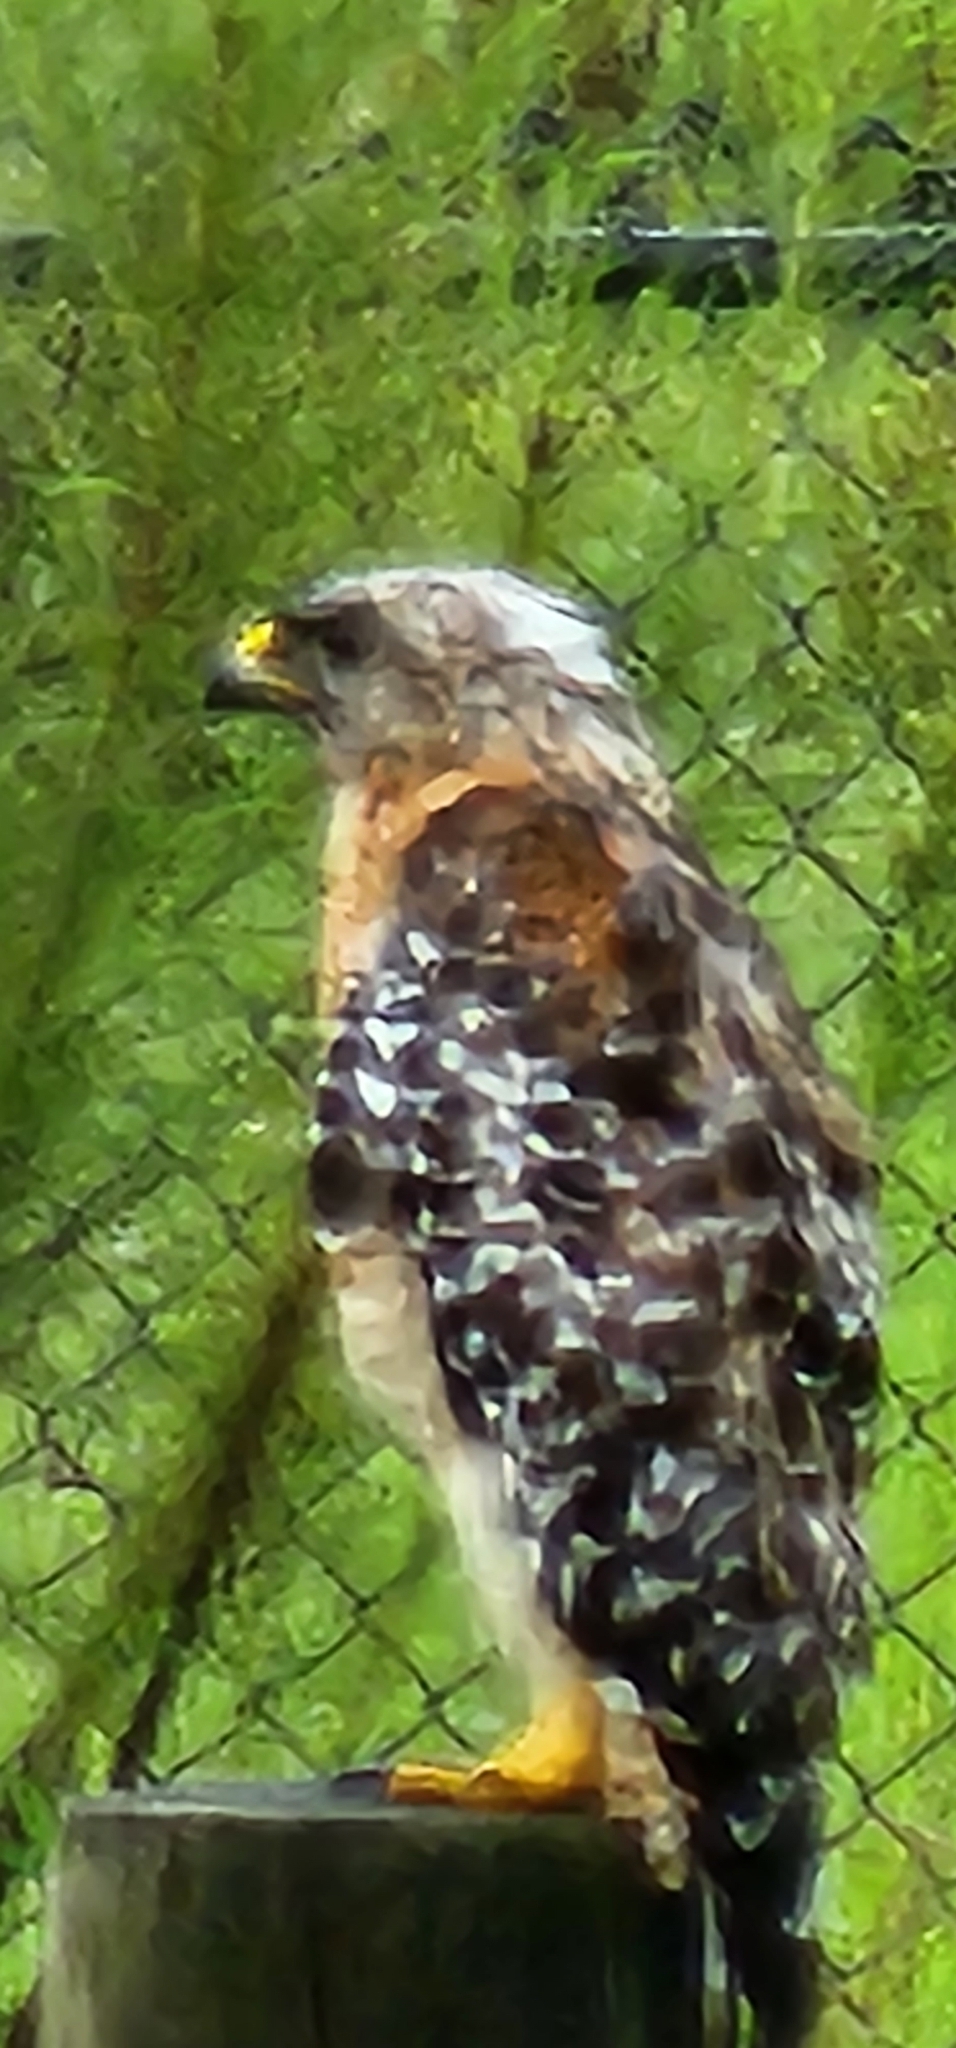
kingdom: Animalia
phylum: Chordata
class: Aves
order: Accipitriformes
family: Accipitridae
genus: Buteo
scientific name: Buteo lineatus
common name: Red-shouldered hawk
